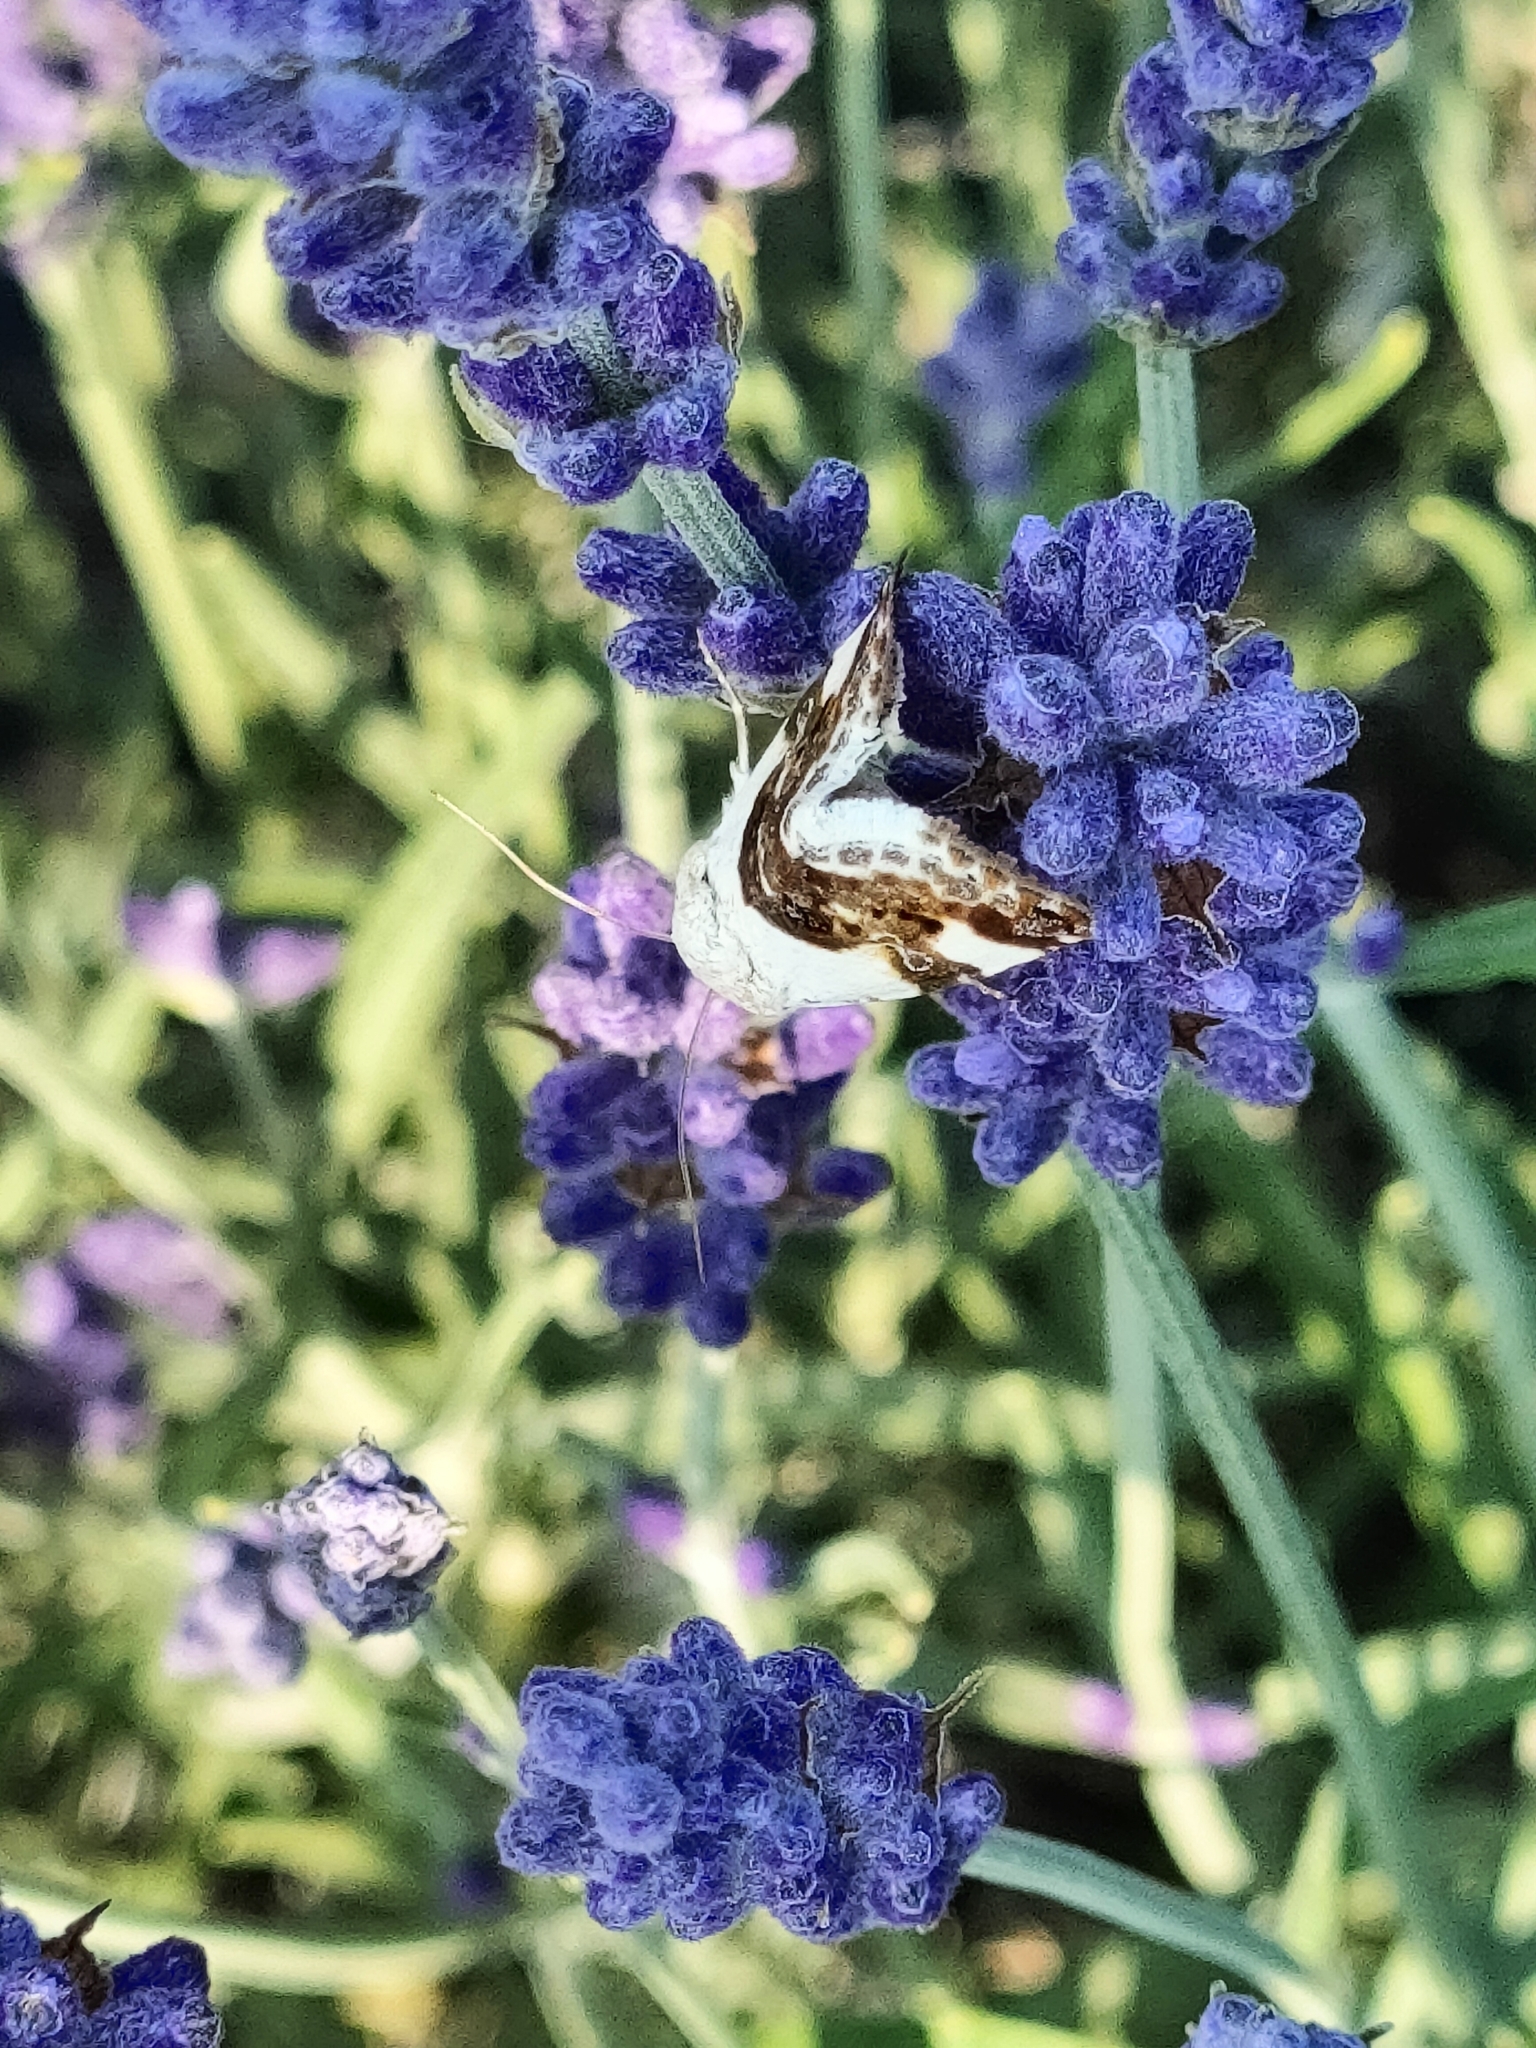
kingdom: Animalia
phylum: Arthropoda
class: Insecta
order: Lepidoptera
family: Noctuidae
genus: Acontia
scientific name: Acontia lucida
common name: Pale shoulder
